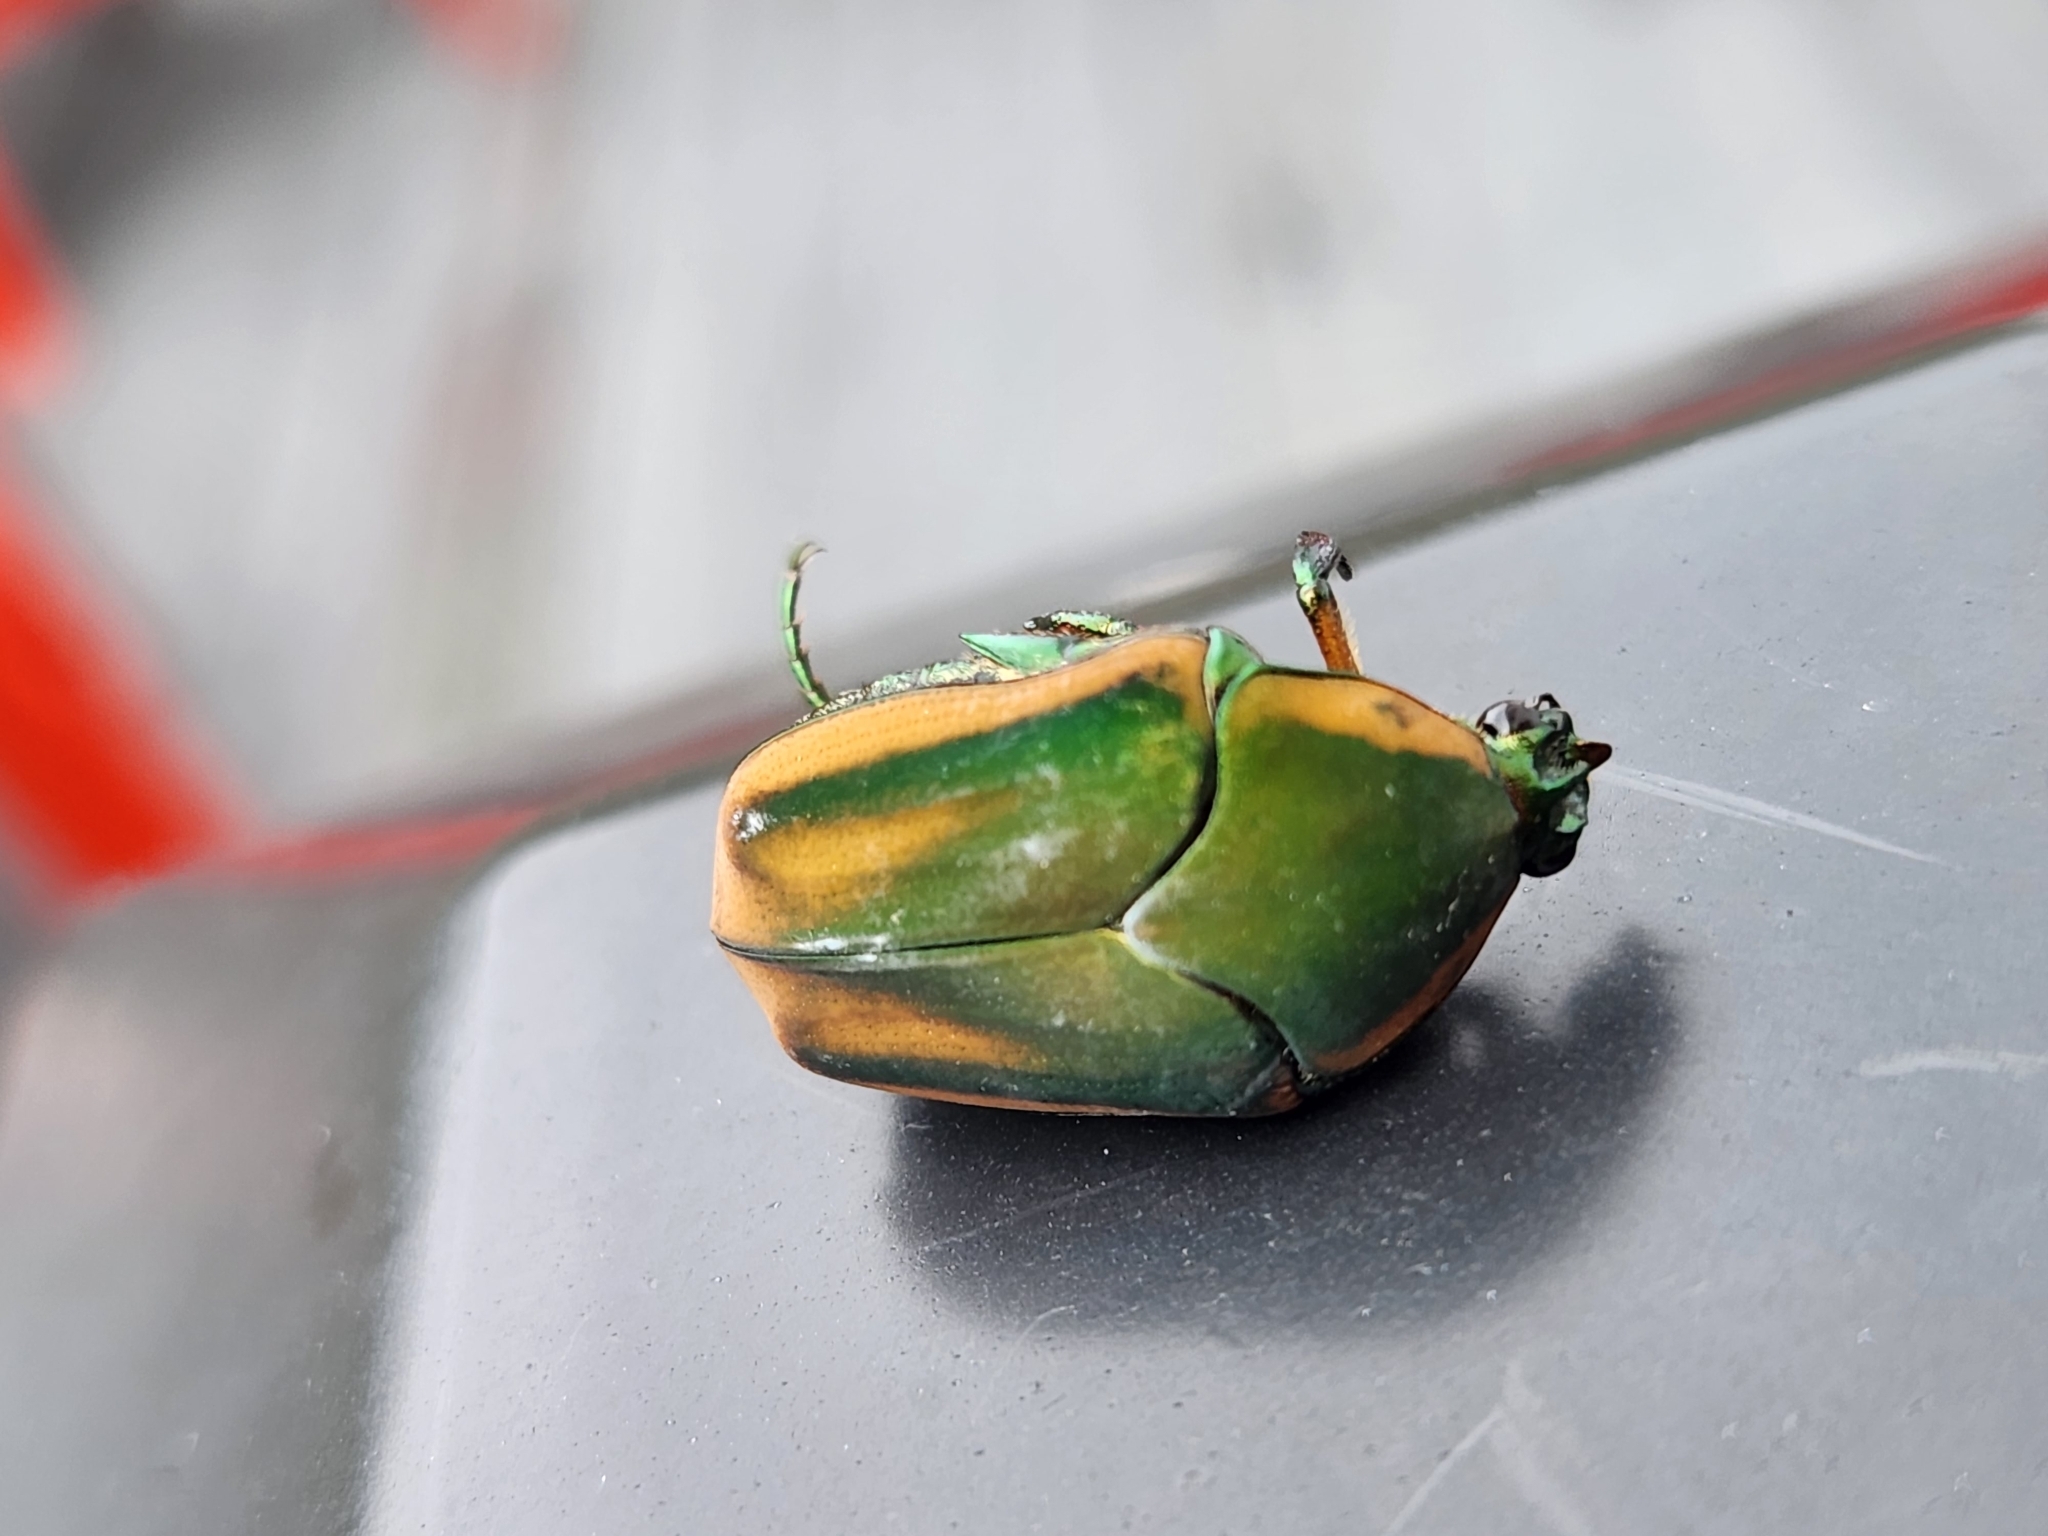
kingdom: Animalia
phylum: Arthropoda
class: Insecta
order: Coleoptera
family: Scarabaeidae
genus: Cotinis
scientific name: Cotinis nitida
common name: Common green june beetle
